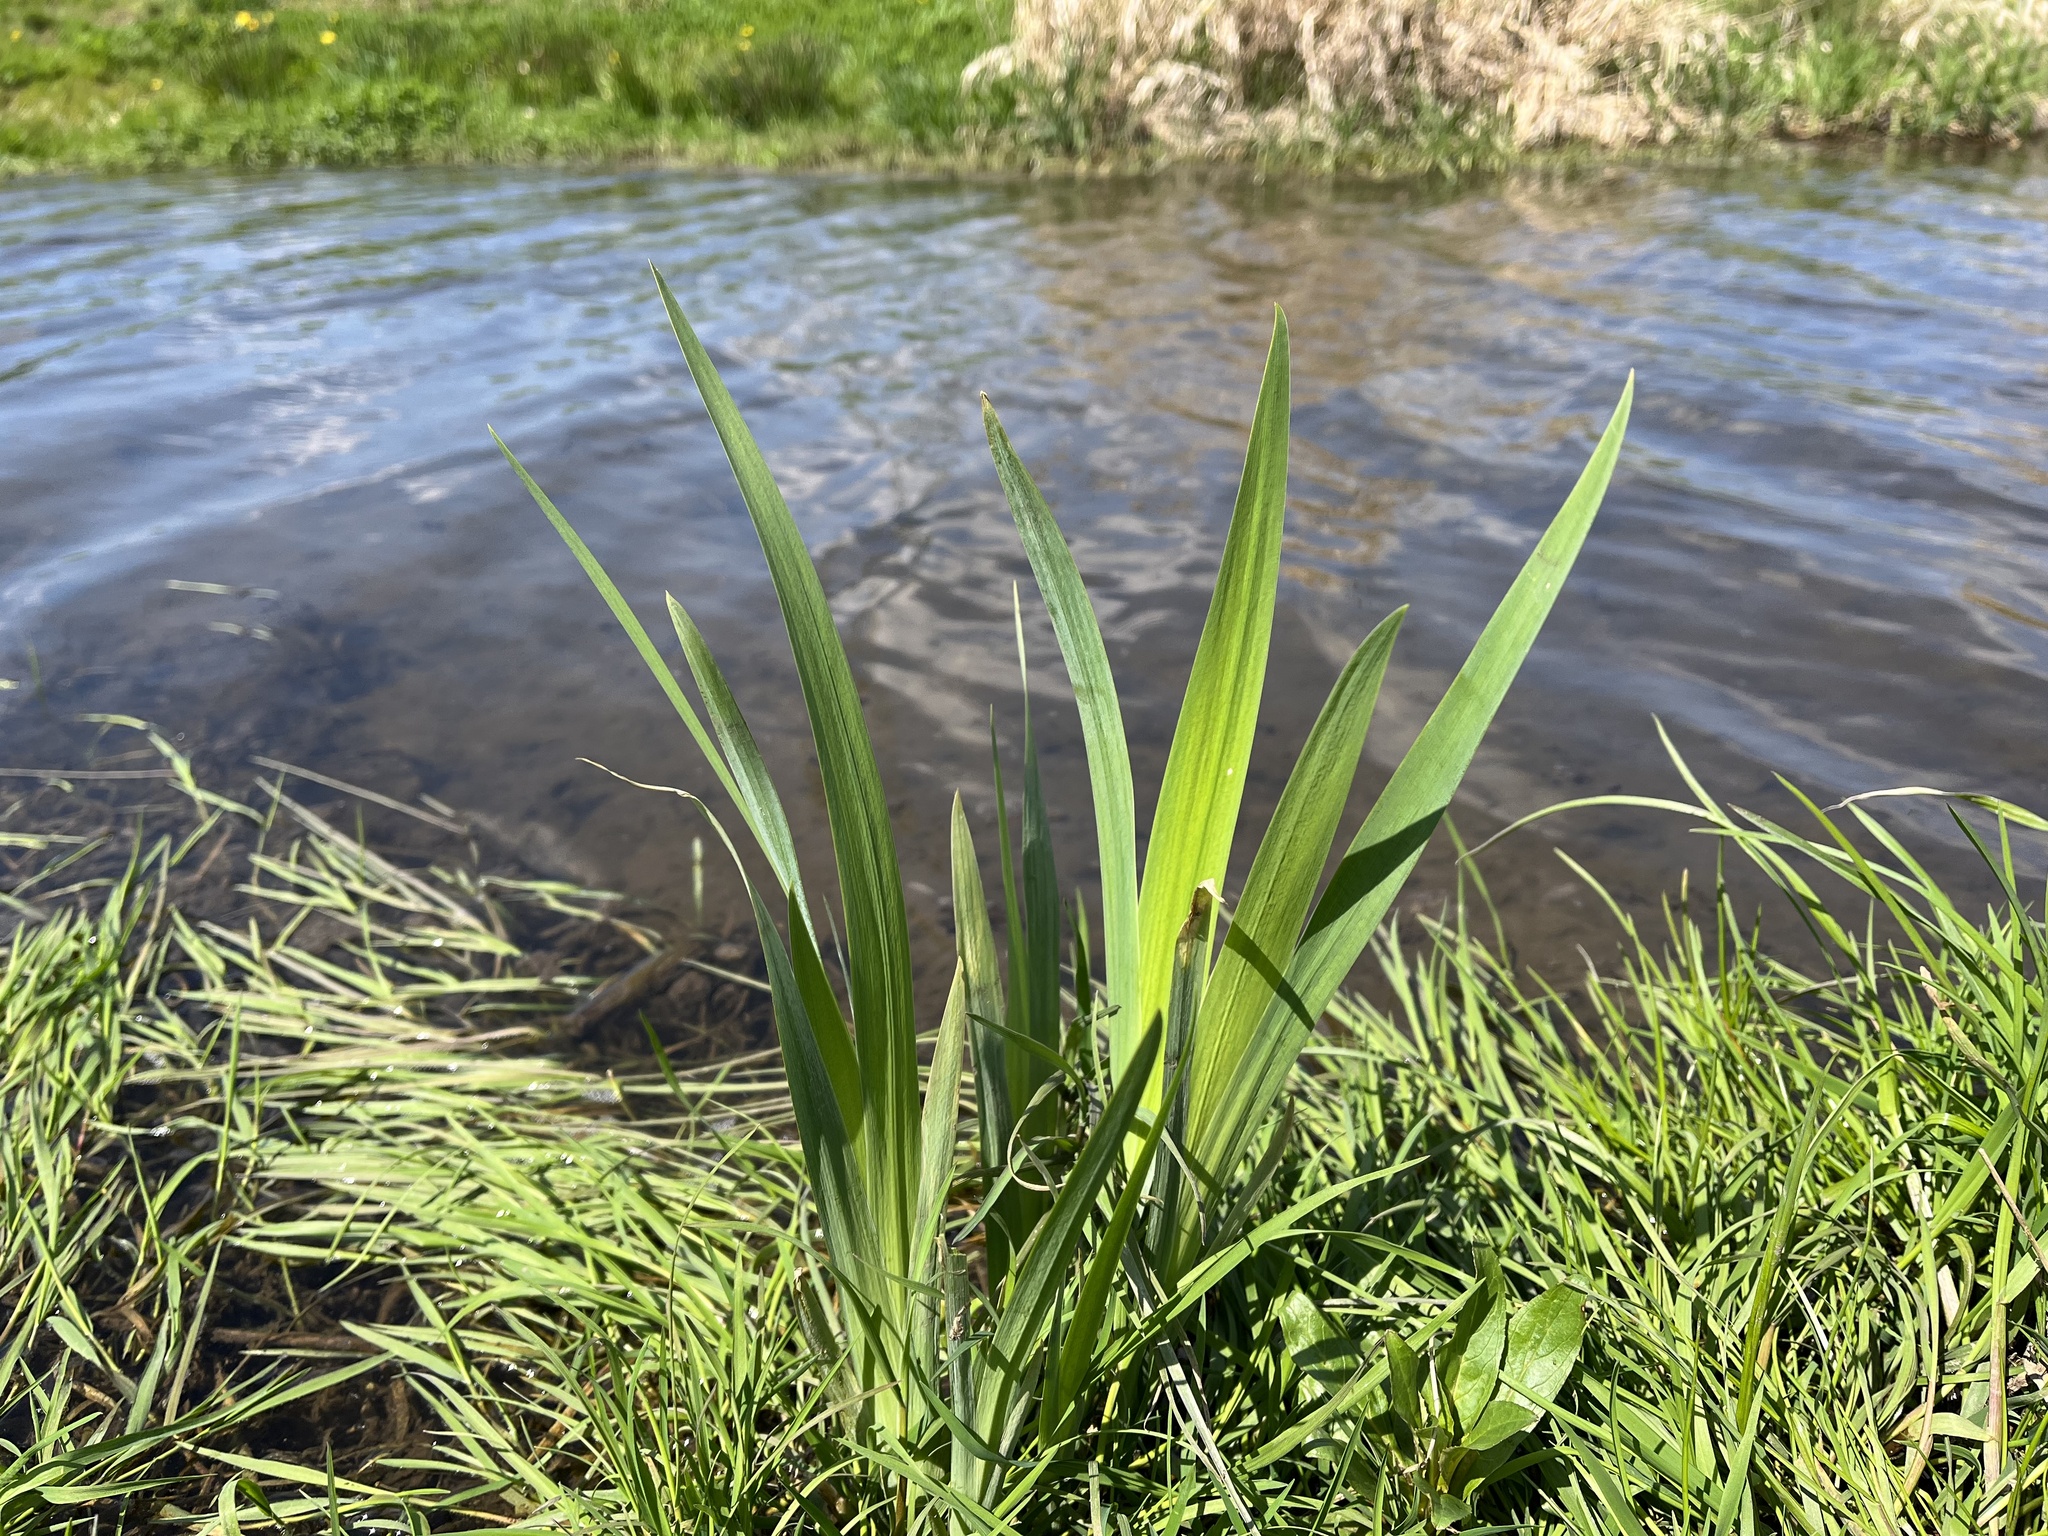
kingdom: Plantae
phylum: Tracheophyta
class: Liliopsida
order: Asparagales
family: Iridaceae
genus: Iris
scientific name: Iris pseudacorus
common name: Yellow flag
